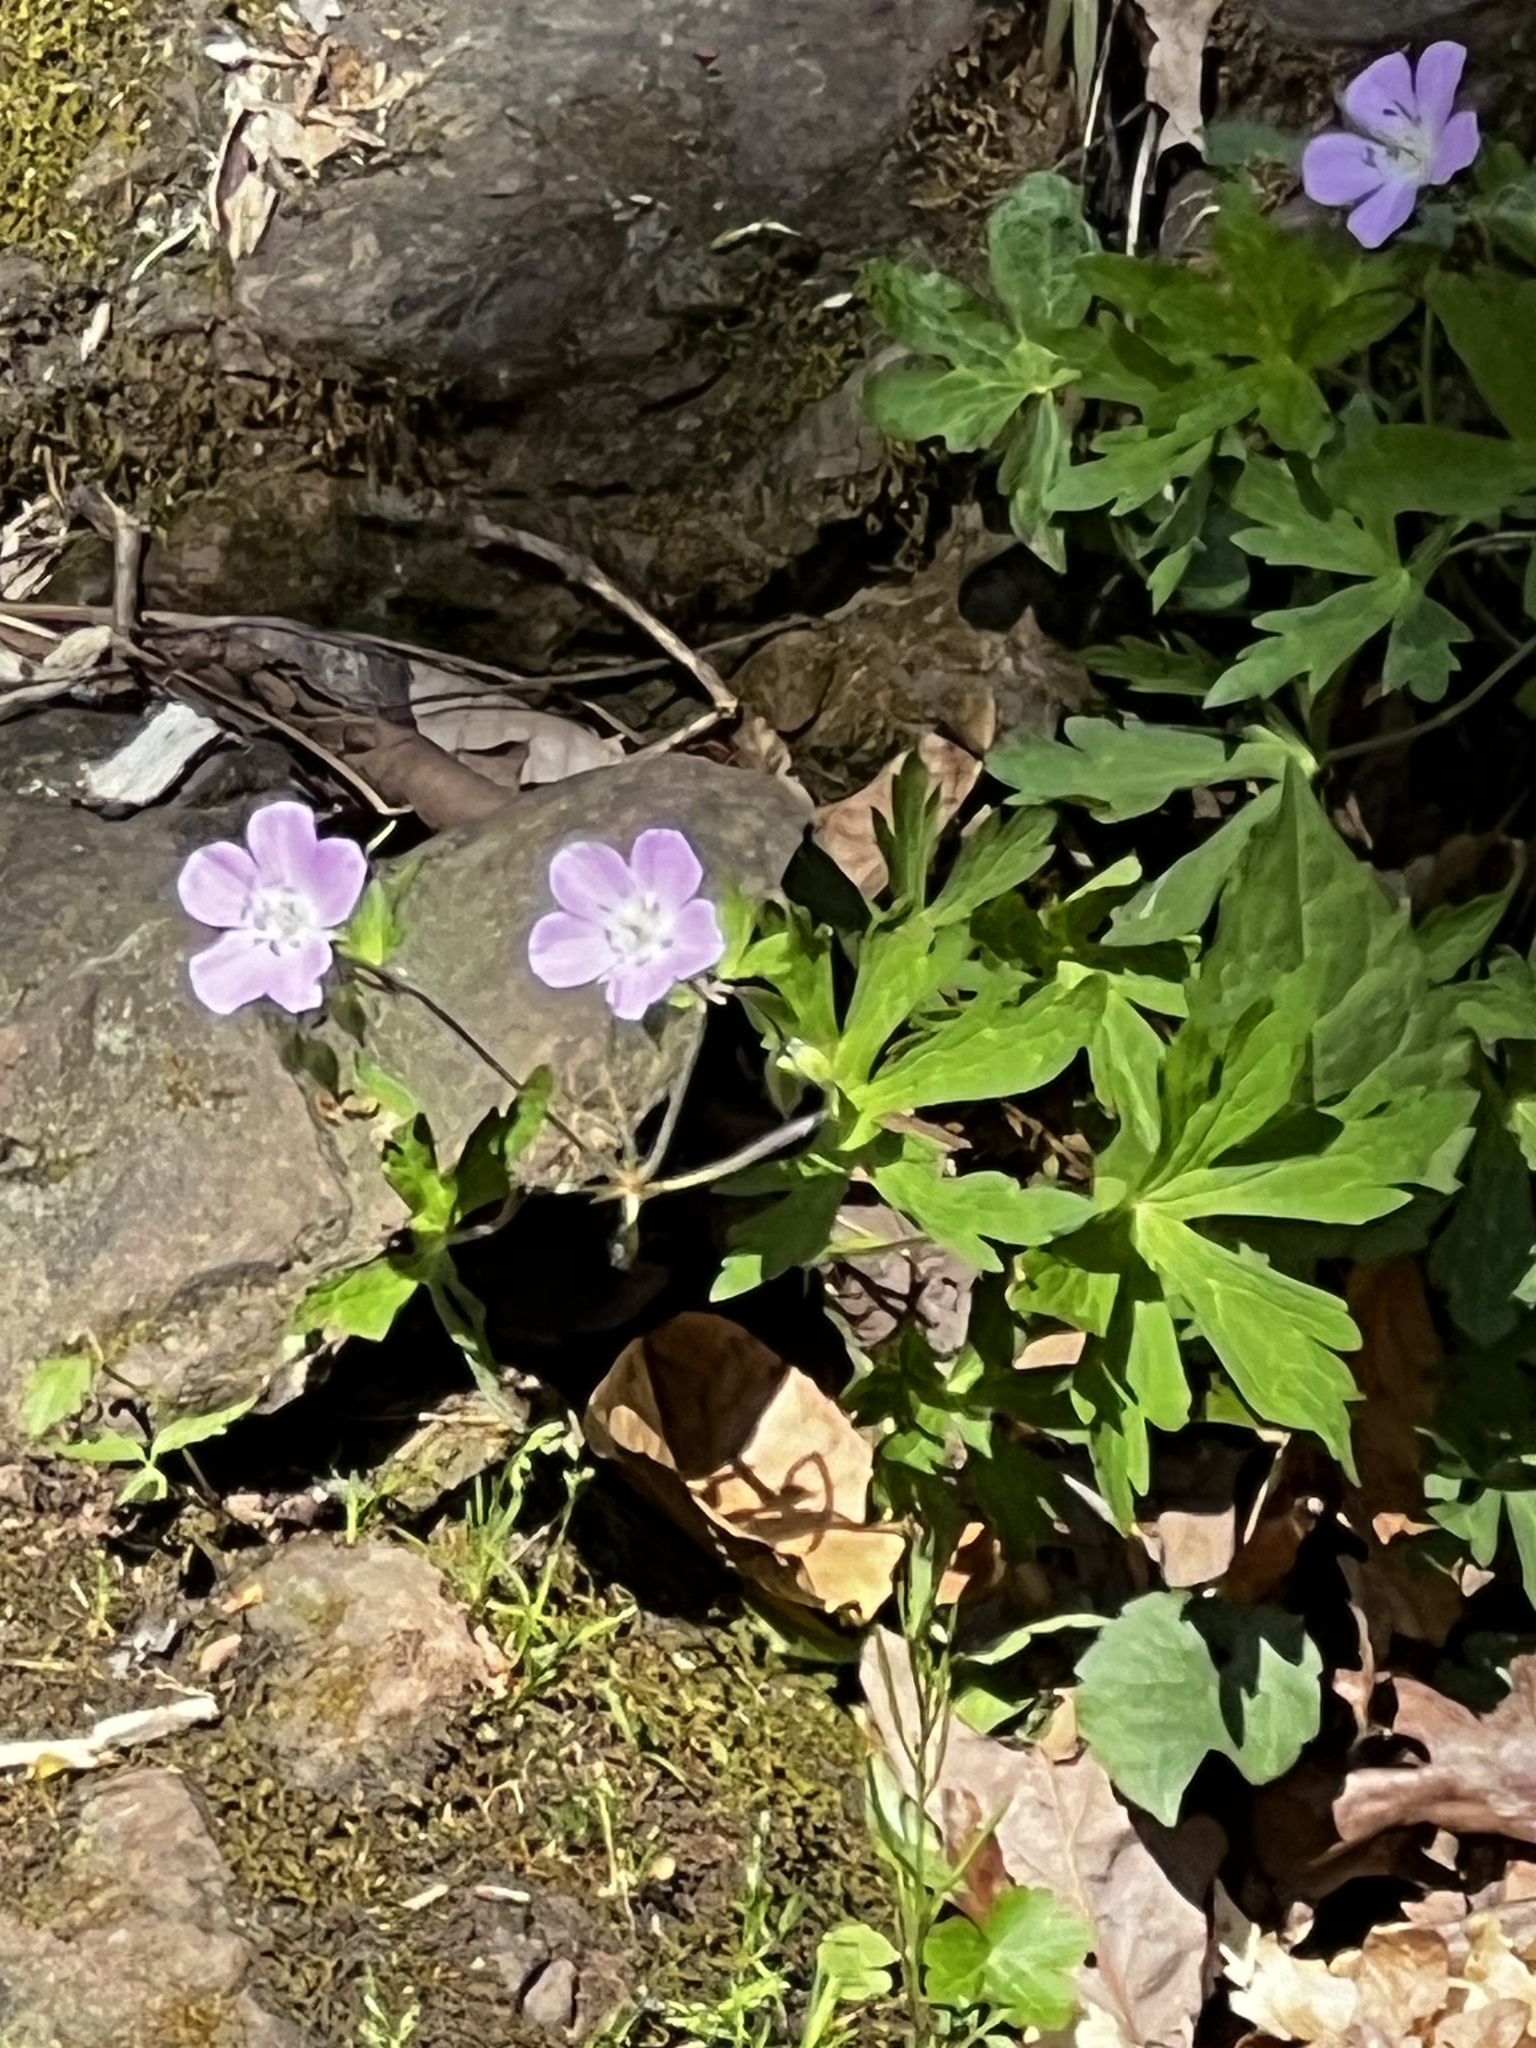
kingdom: Plantae
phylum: Tracheophyta
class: Magnoliopsida
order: Geraniales
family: Geraniaceae
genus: Geranium
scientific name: Geranium maculatum
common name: Spotted geranium
